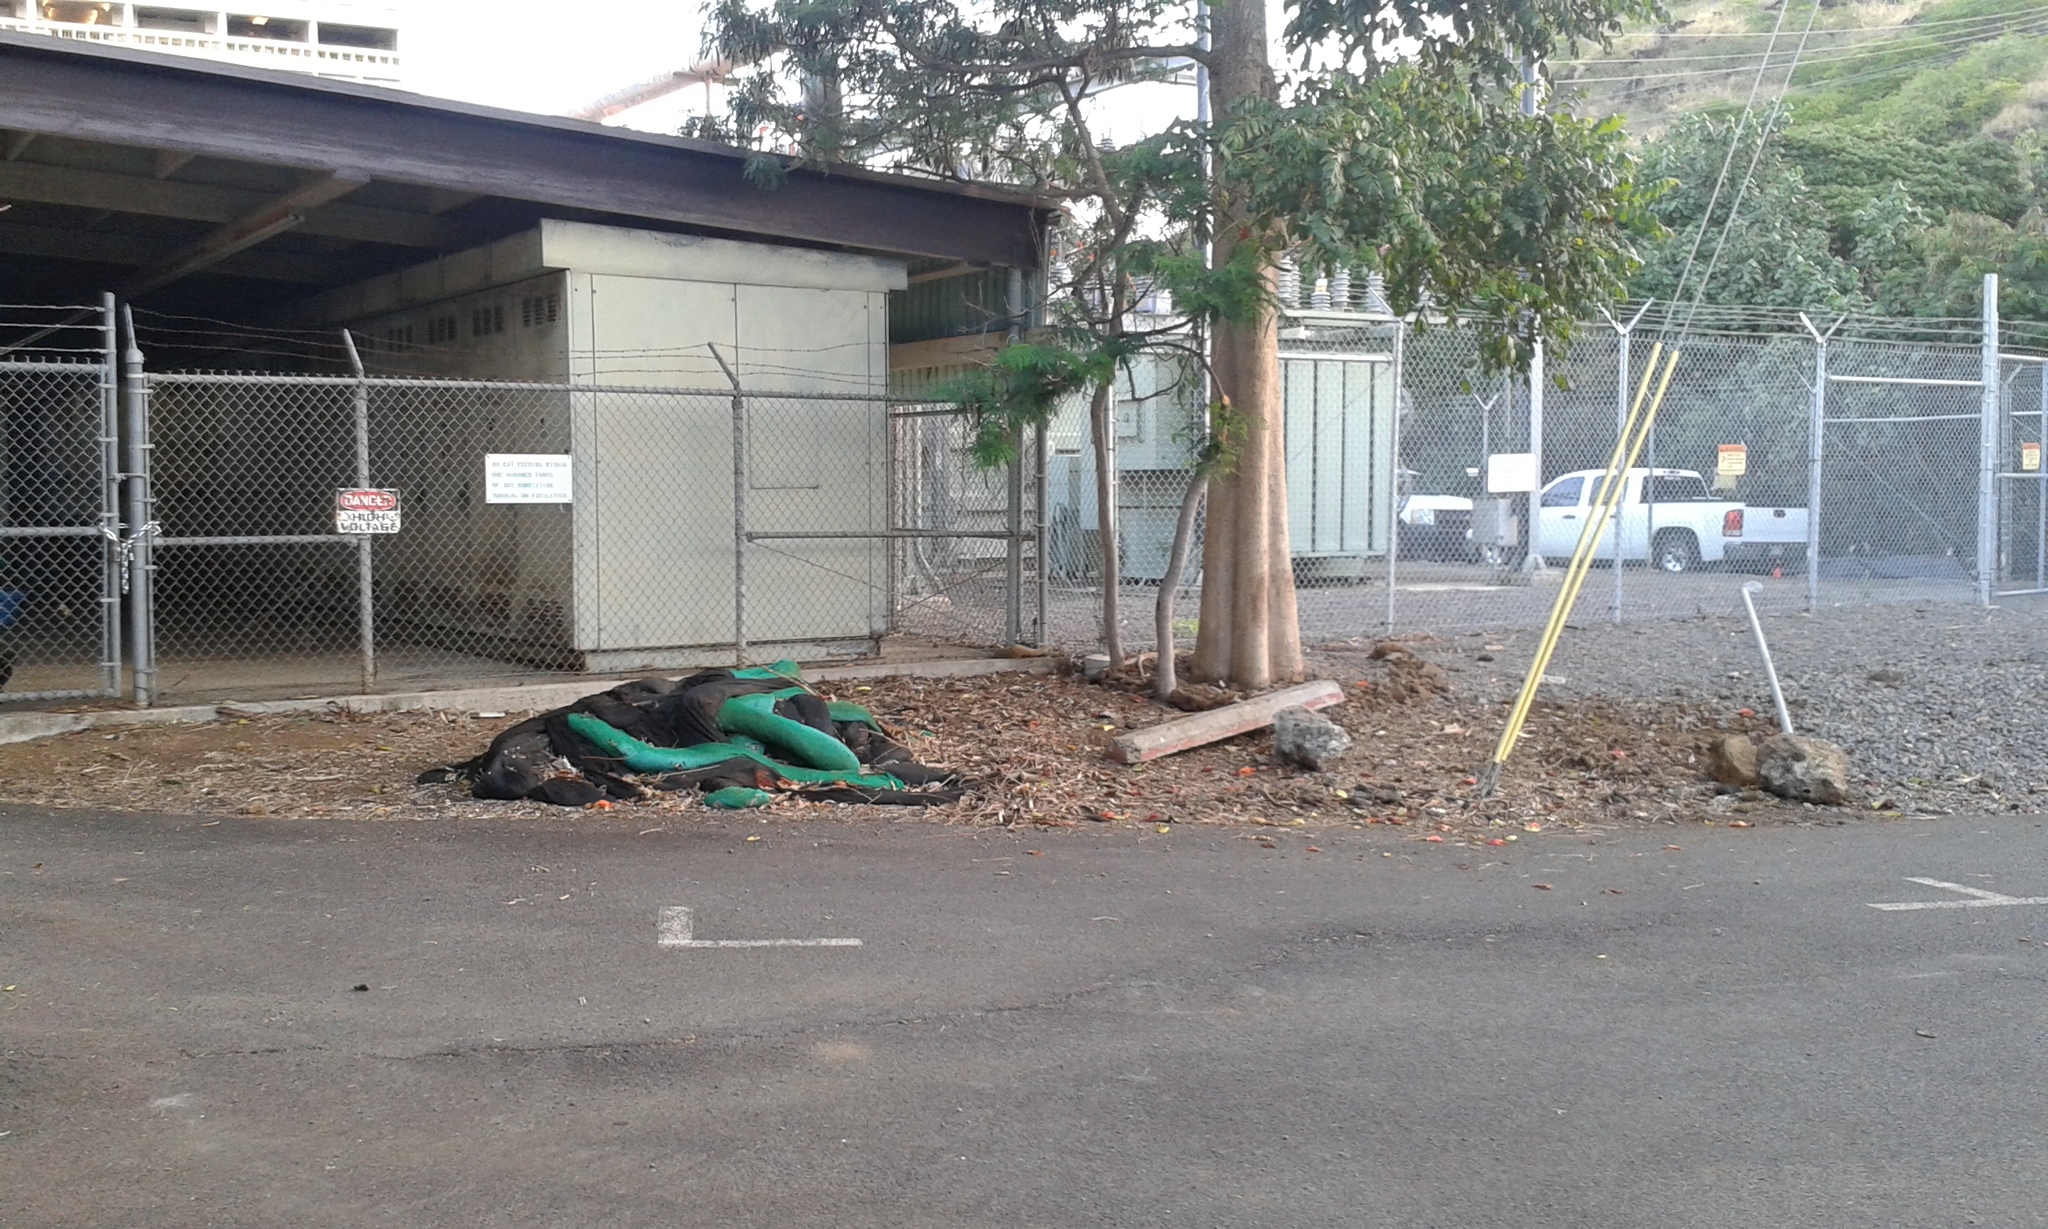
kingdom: Animalia
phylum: Chordata
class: Mammalia
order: Carnivora
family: Herpestidae
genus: Herpestes
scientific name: Herpestes javanicus
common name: Small asian mongoose
